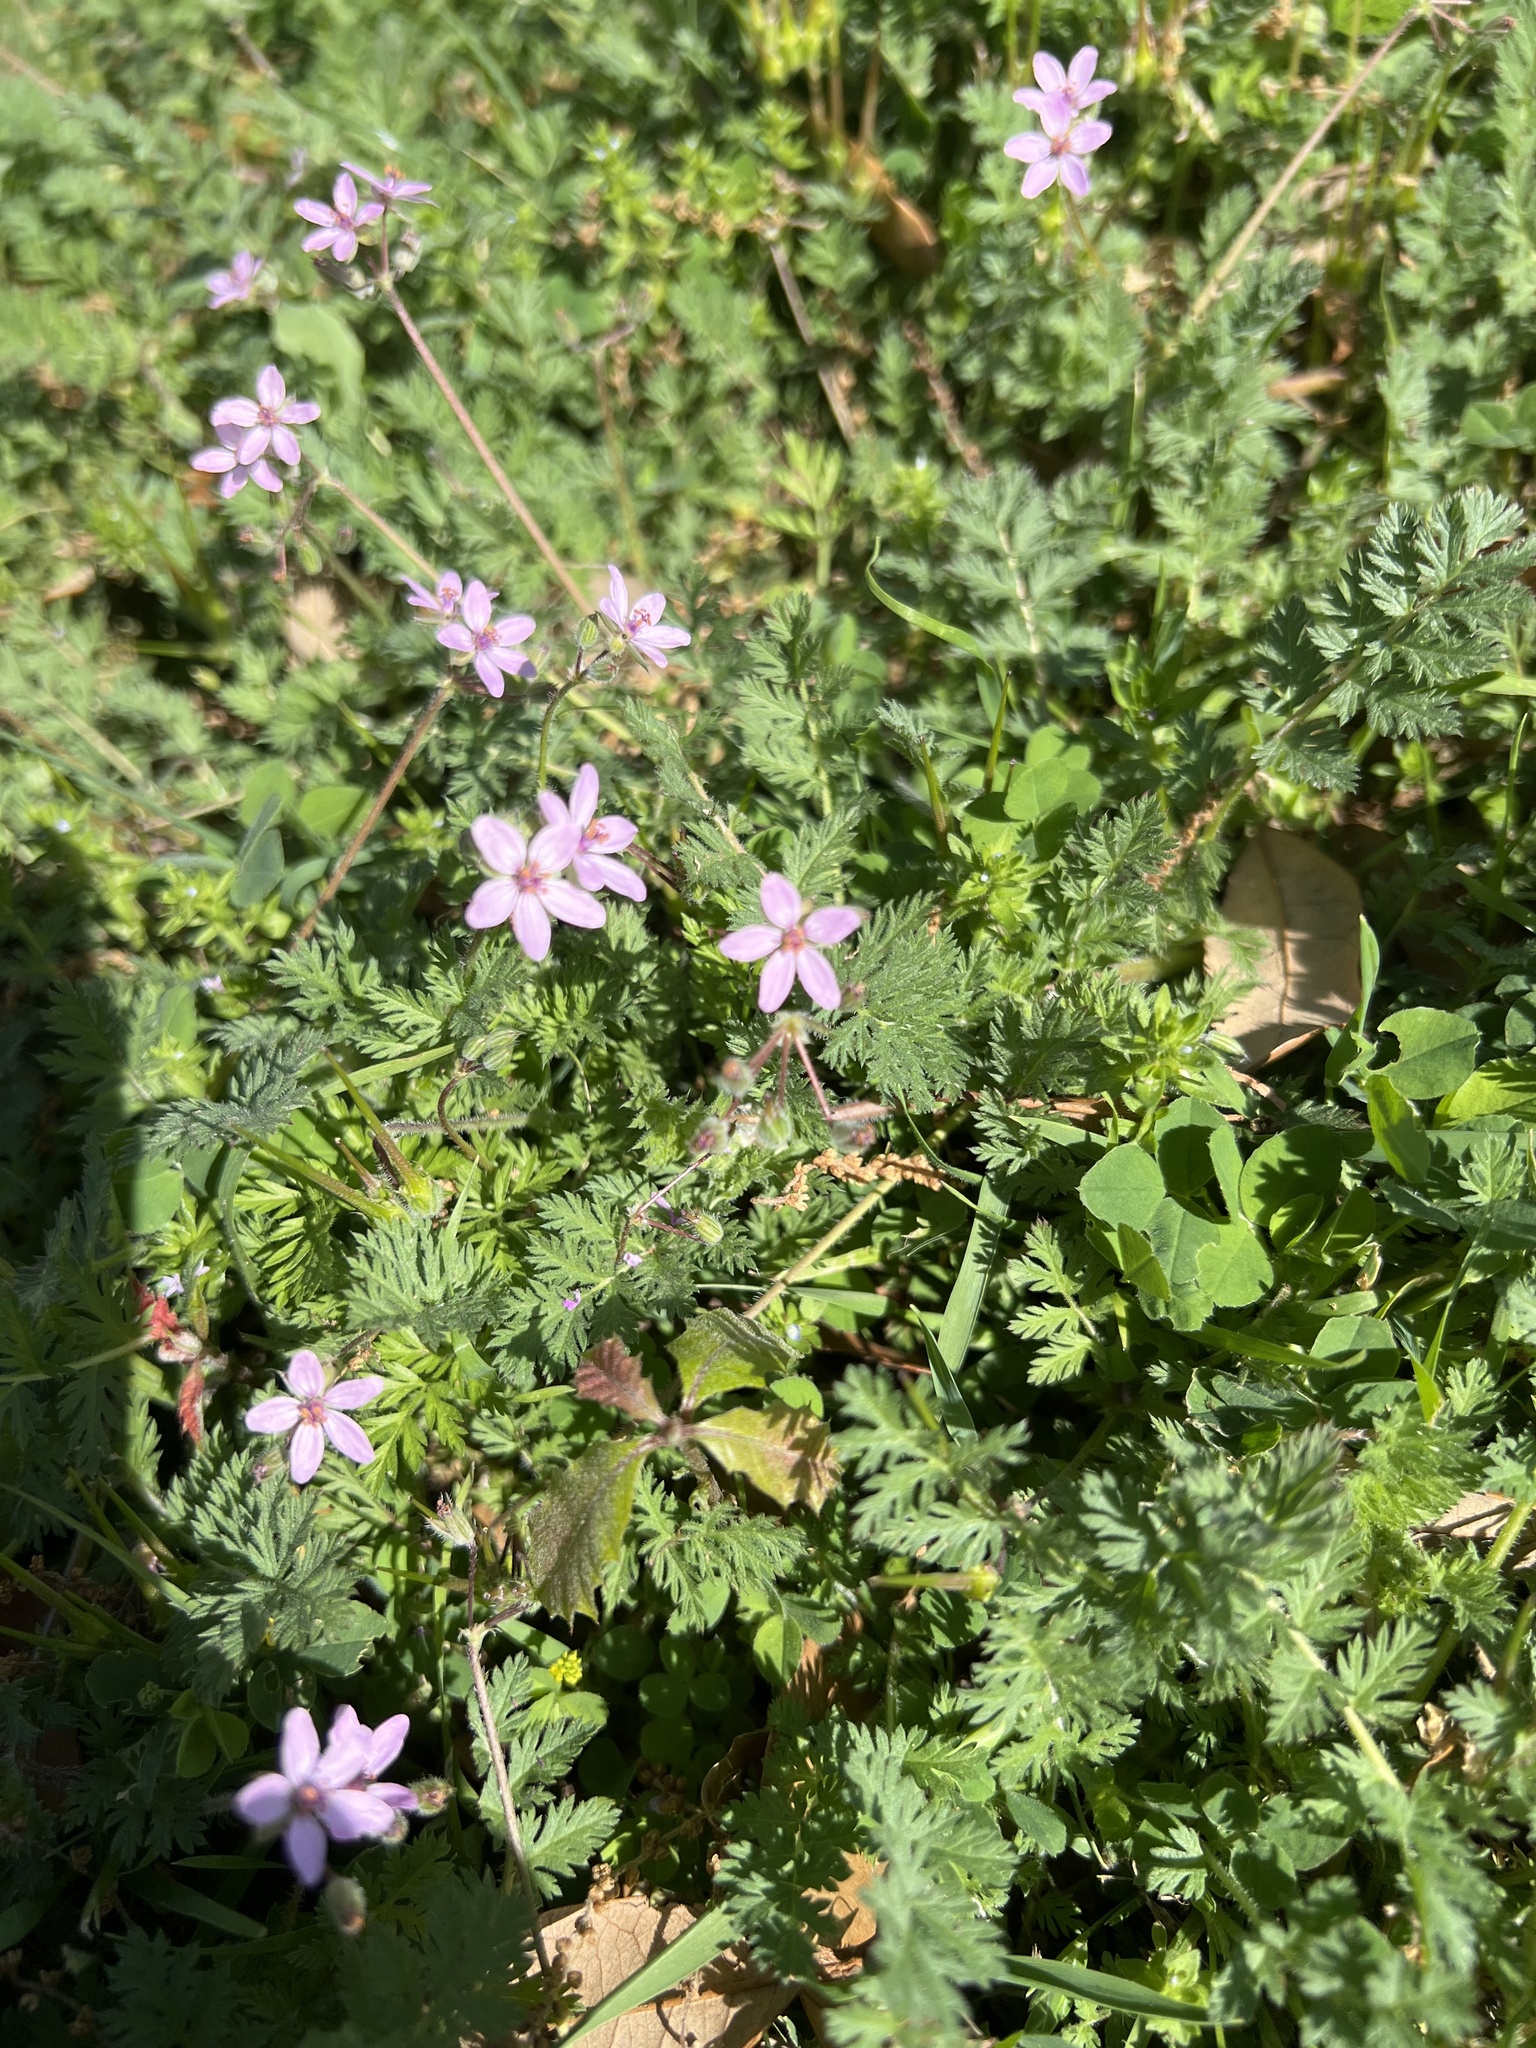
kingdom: Plantae
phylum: Tracheophyta
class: Magnoliopsida
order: Geraniales
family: Geraniaceae
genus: Erodium
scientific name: Erodium cicutarium
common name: Common stork's-bill
